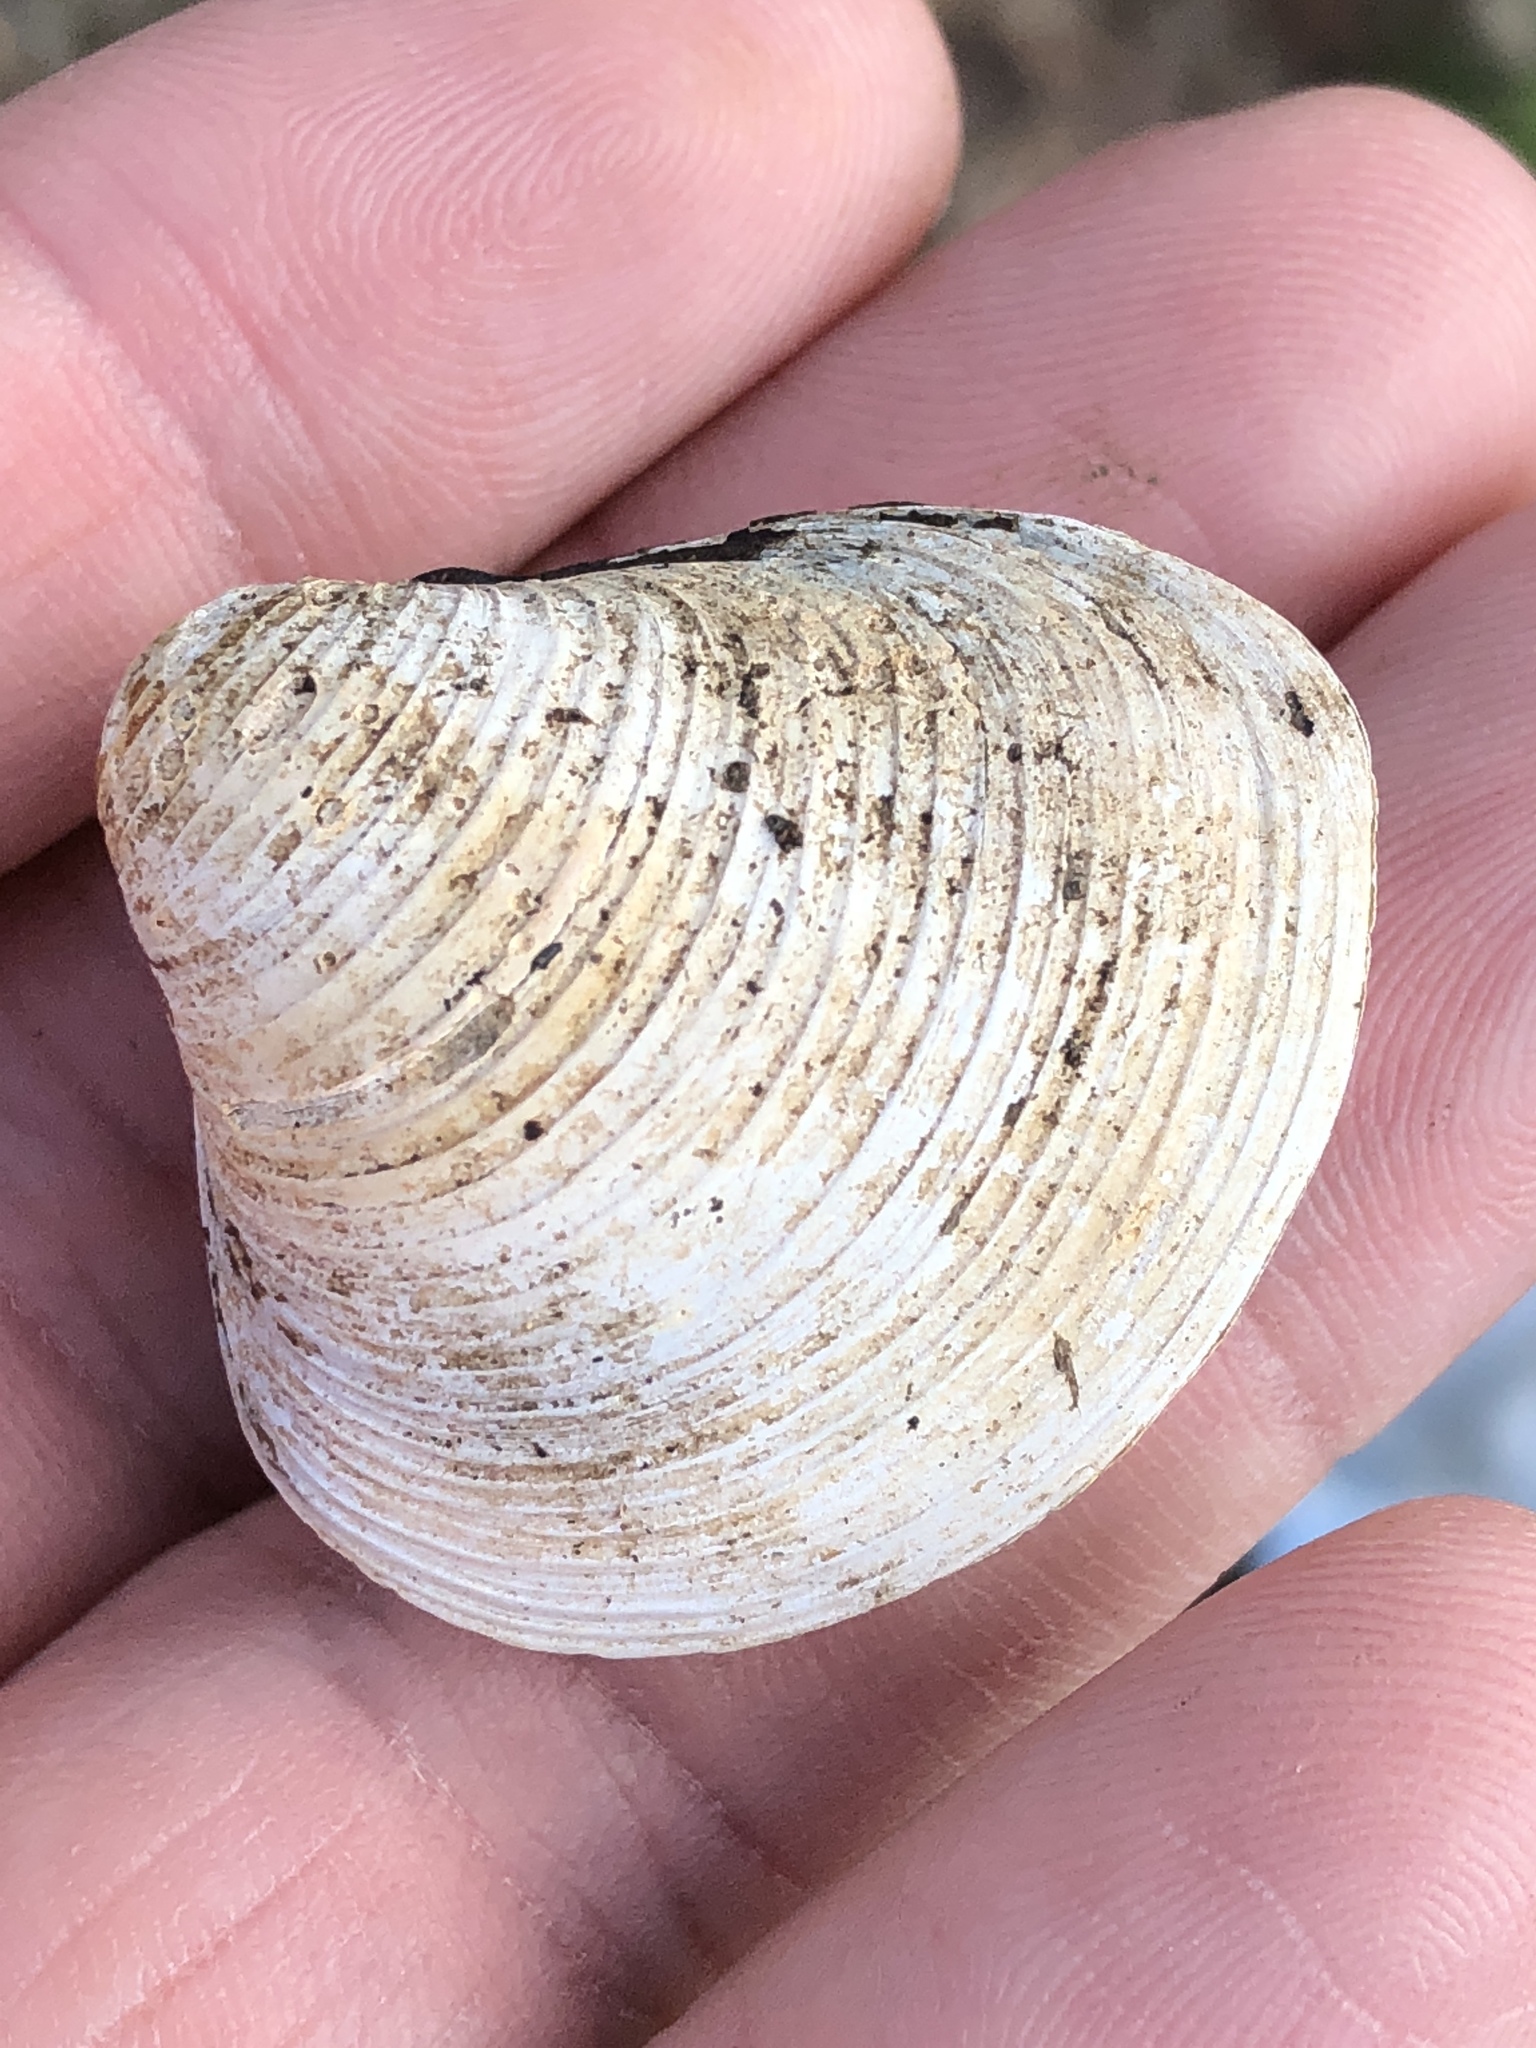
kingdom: Animalia
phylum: Mollusca
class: Bivalvia
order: Venerida
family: Cyrenidae
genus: Corbicula
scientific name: Corbicula fluminea
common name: Asian clam
